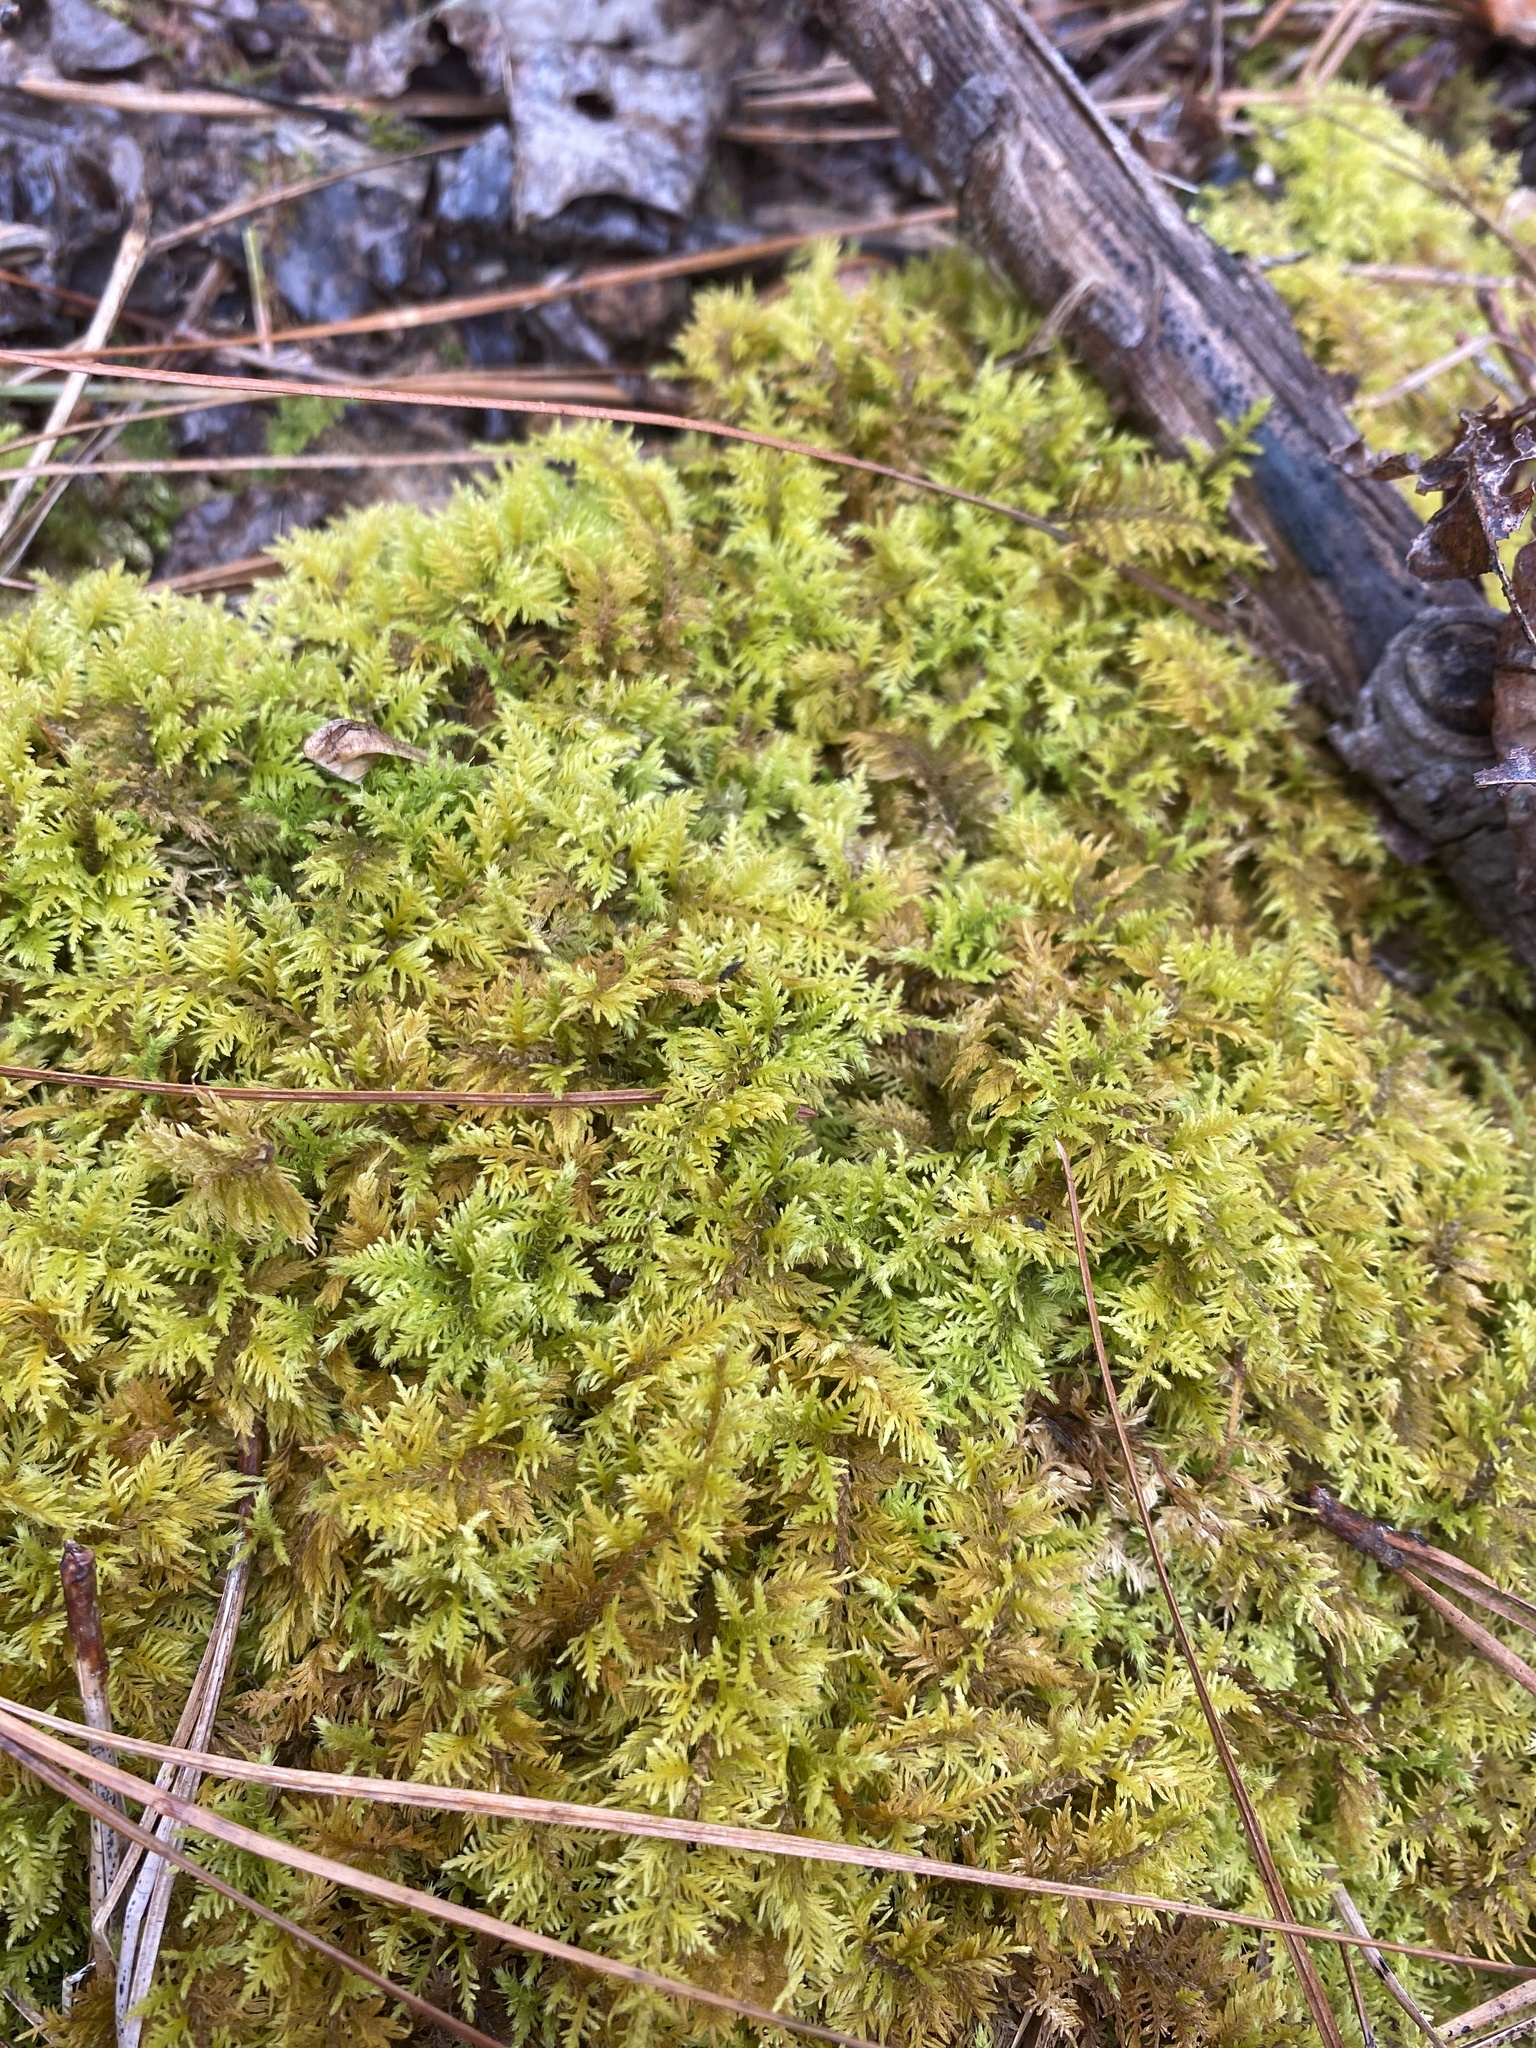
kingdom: Plantae
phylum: Bryophyta
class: Bryopsida
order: Hypnales
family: Thuidiaceae
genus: Thuidium
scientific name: Thuidium delicatulum
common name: Delicate fern moss
